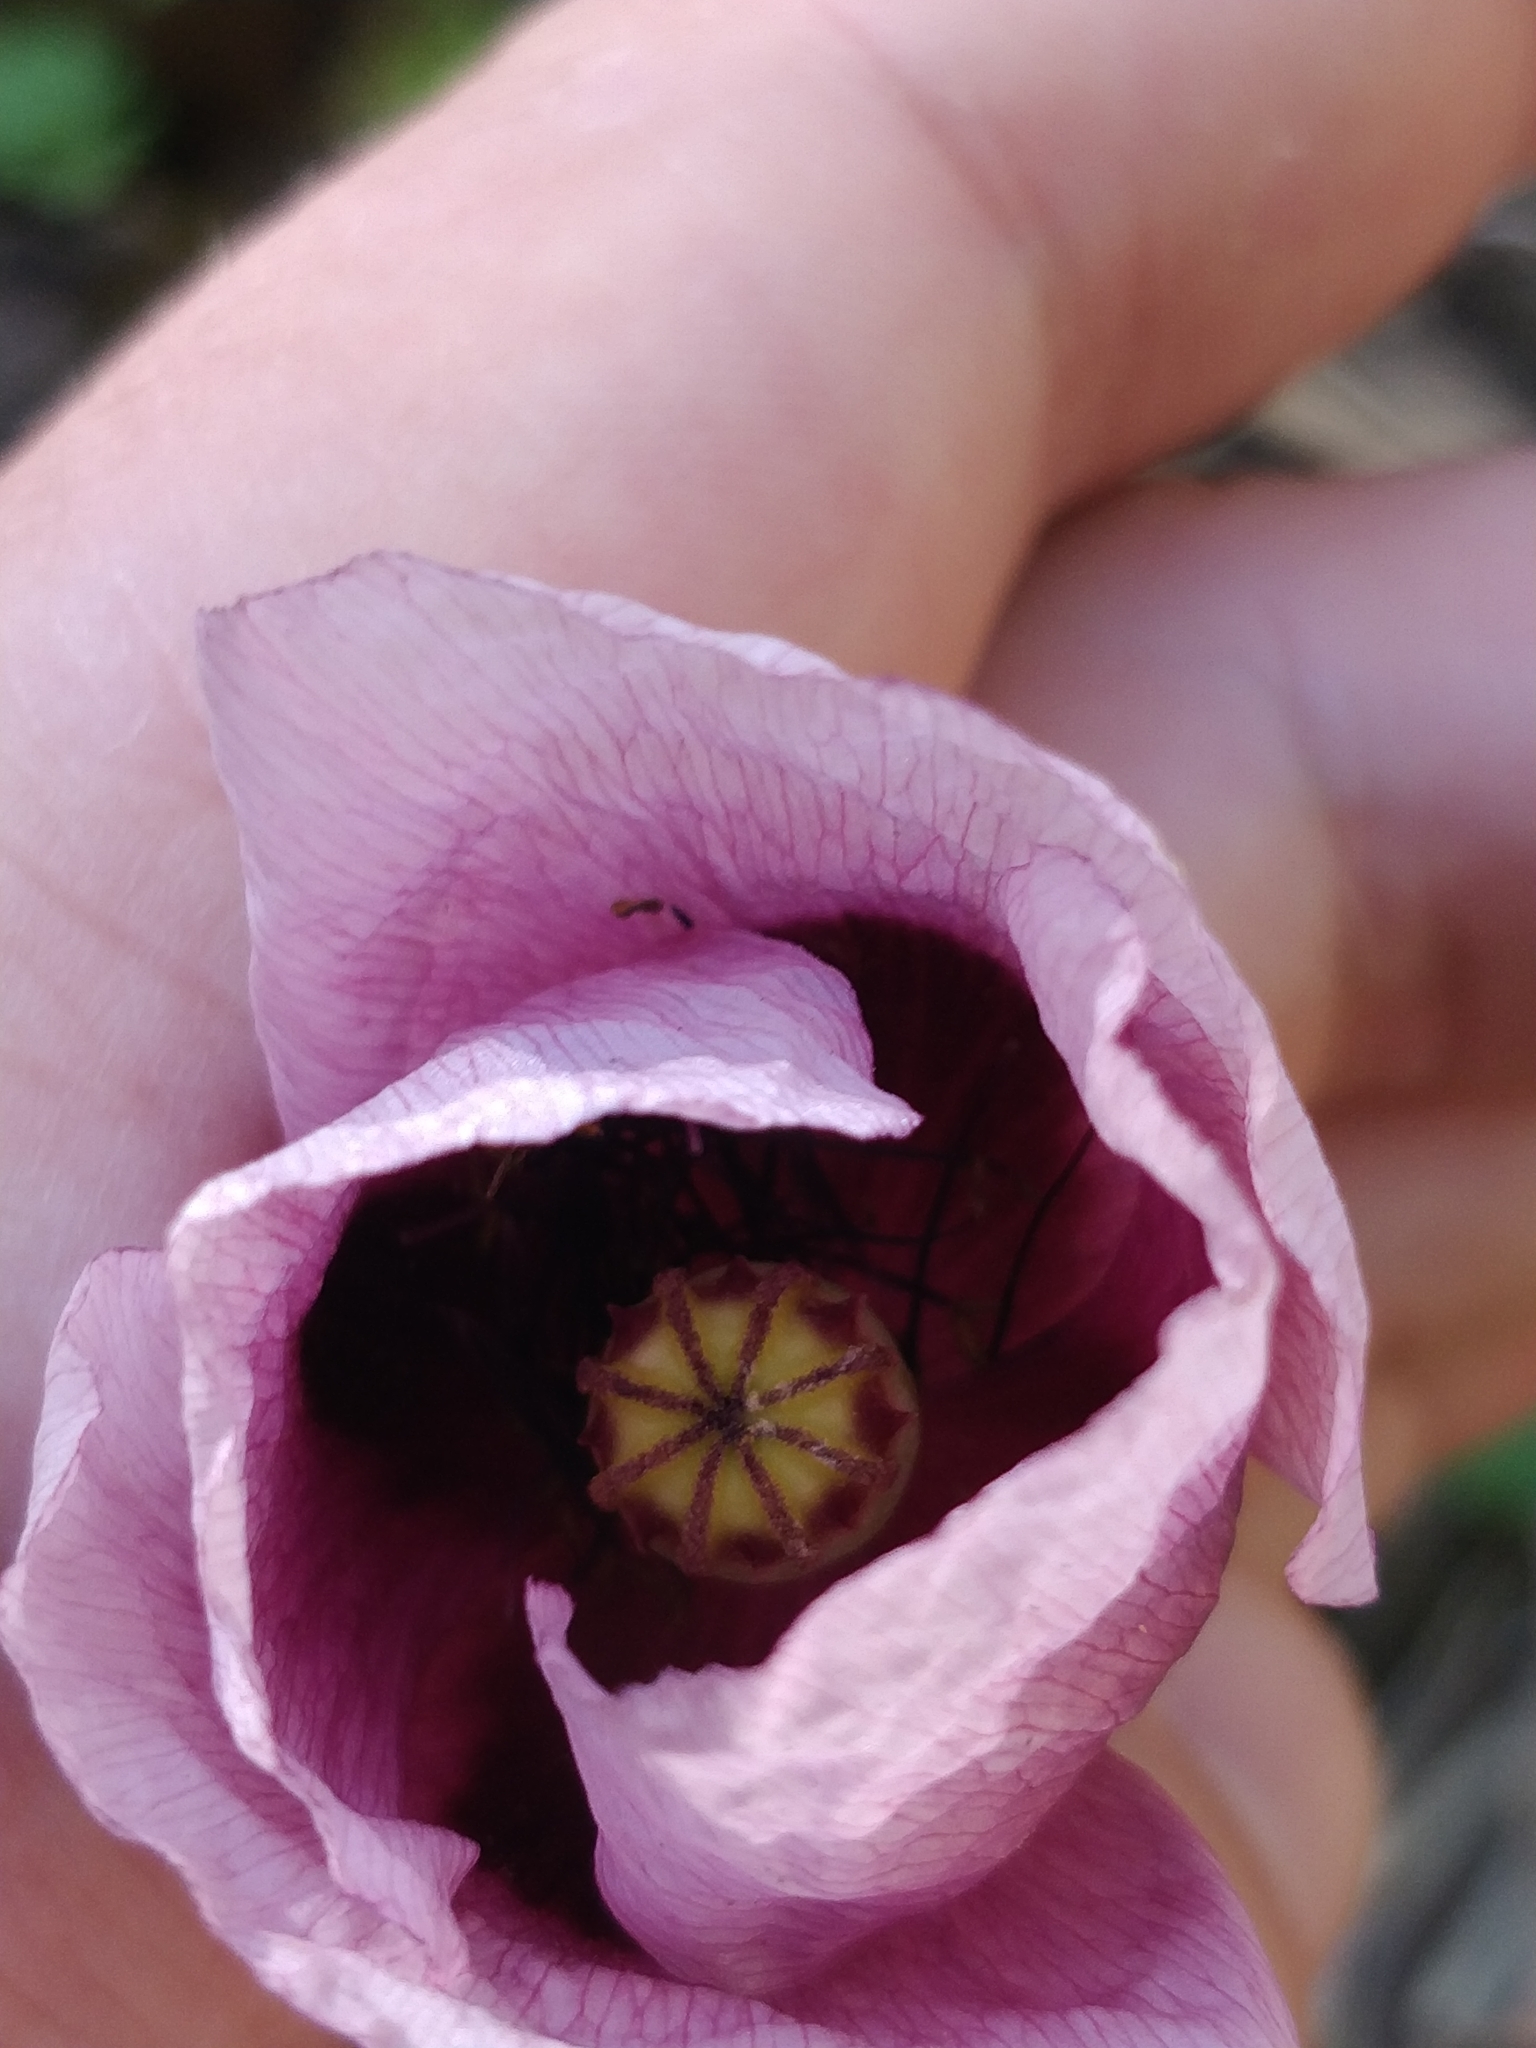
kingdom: Plantae
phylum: Tracheophyta
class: Magnoliopsida
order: Ranunculales
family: Papaveraceae
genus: Papaver
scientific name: Papaver setigerum
